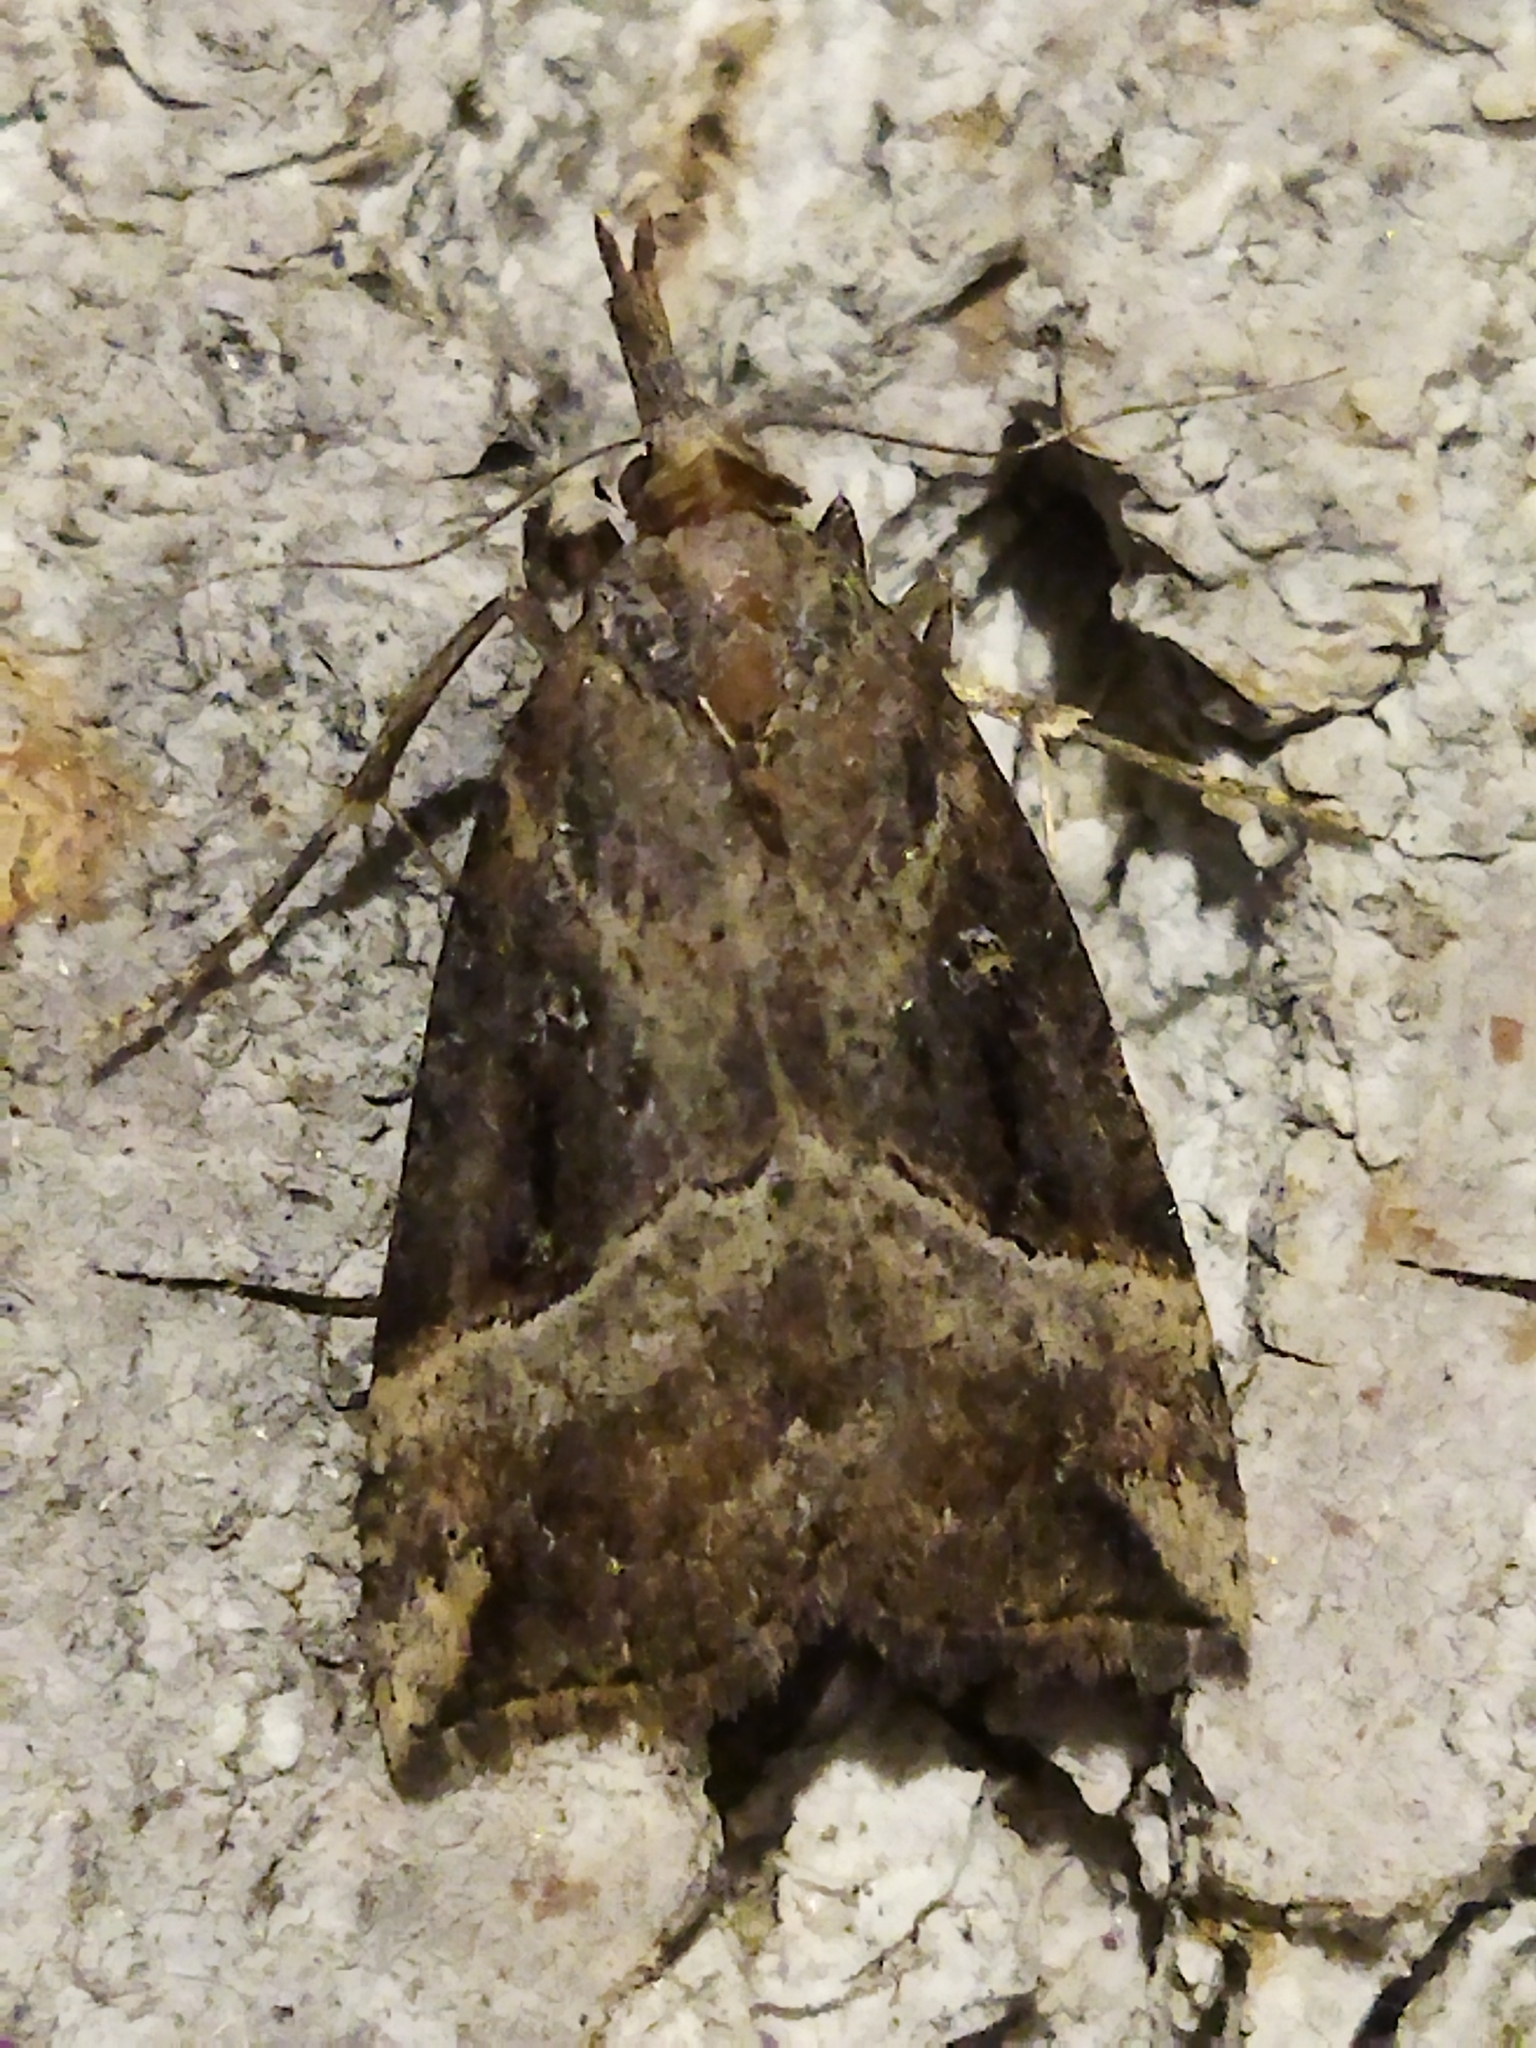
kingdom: Animalia
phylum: Arthropoda
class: Insecta
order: Lepidoptera
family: Erebidae
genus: Hypena
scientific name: Hypena rostralis
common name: Buttoned snout
